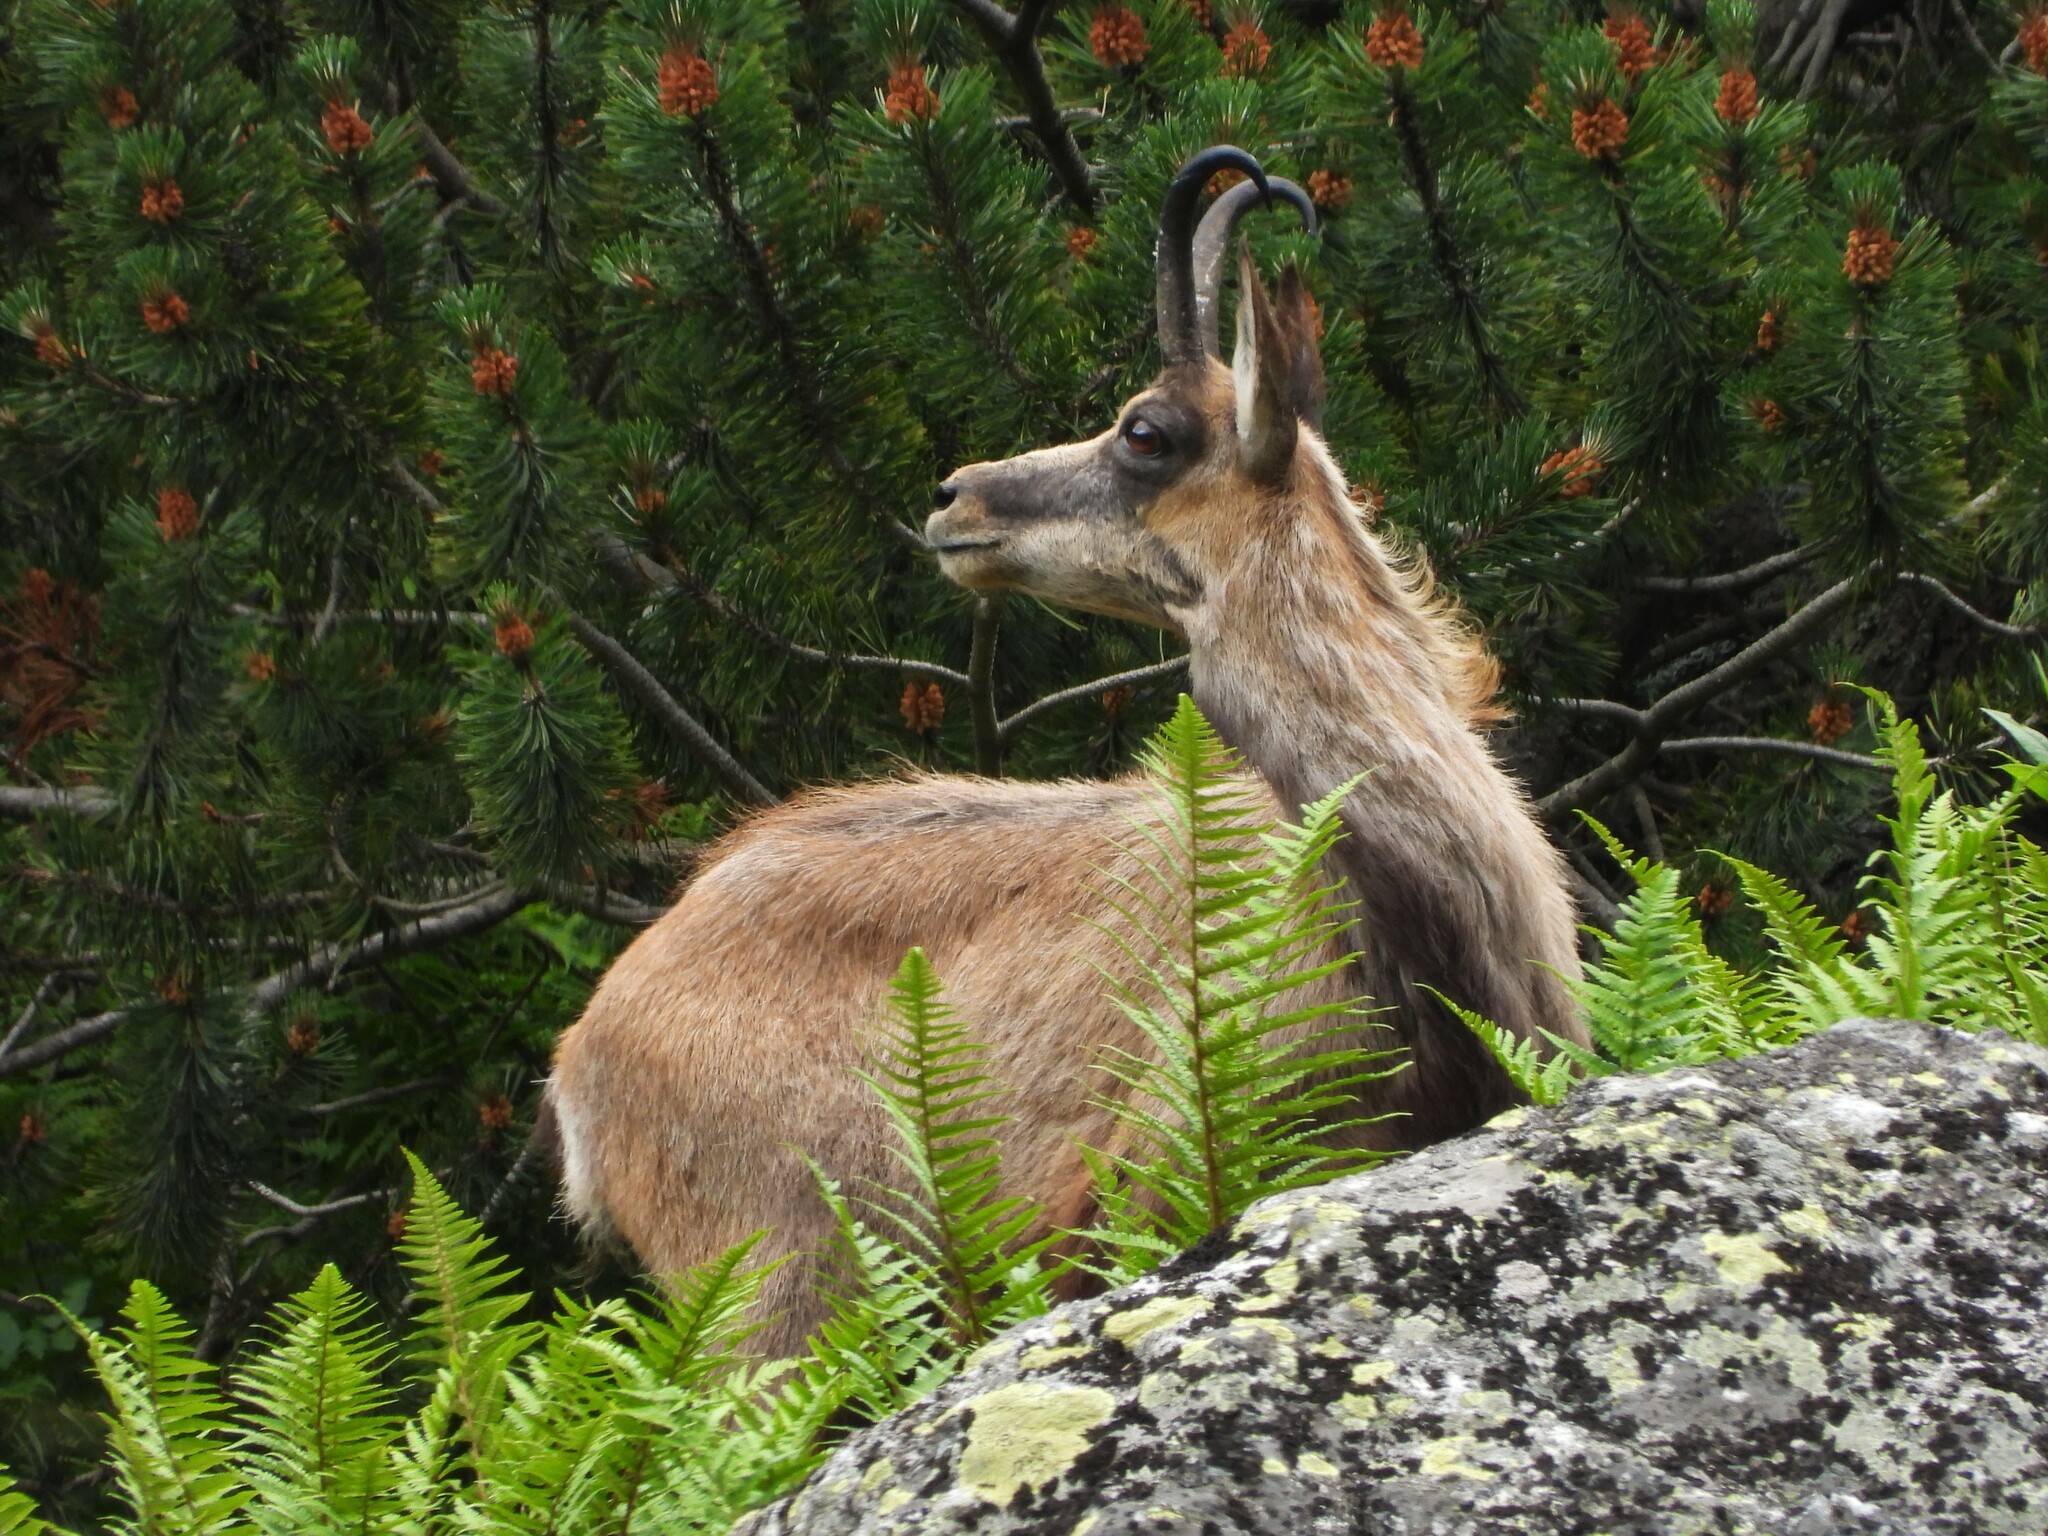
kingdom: Animalia
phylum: Chordata
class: Mammalia
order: Artiodactyla
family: Bovidae
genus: Rupicapra
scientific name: Rupicapra rupicapra
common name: Chamois
